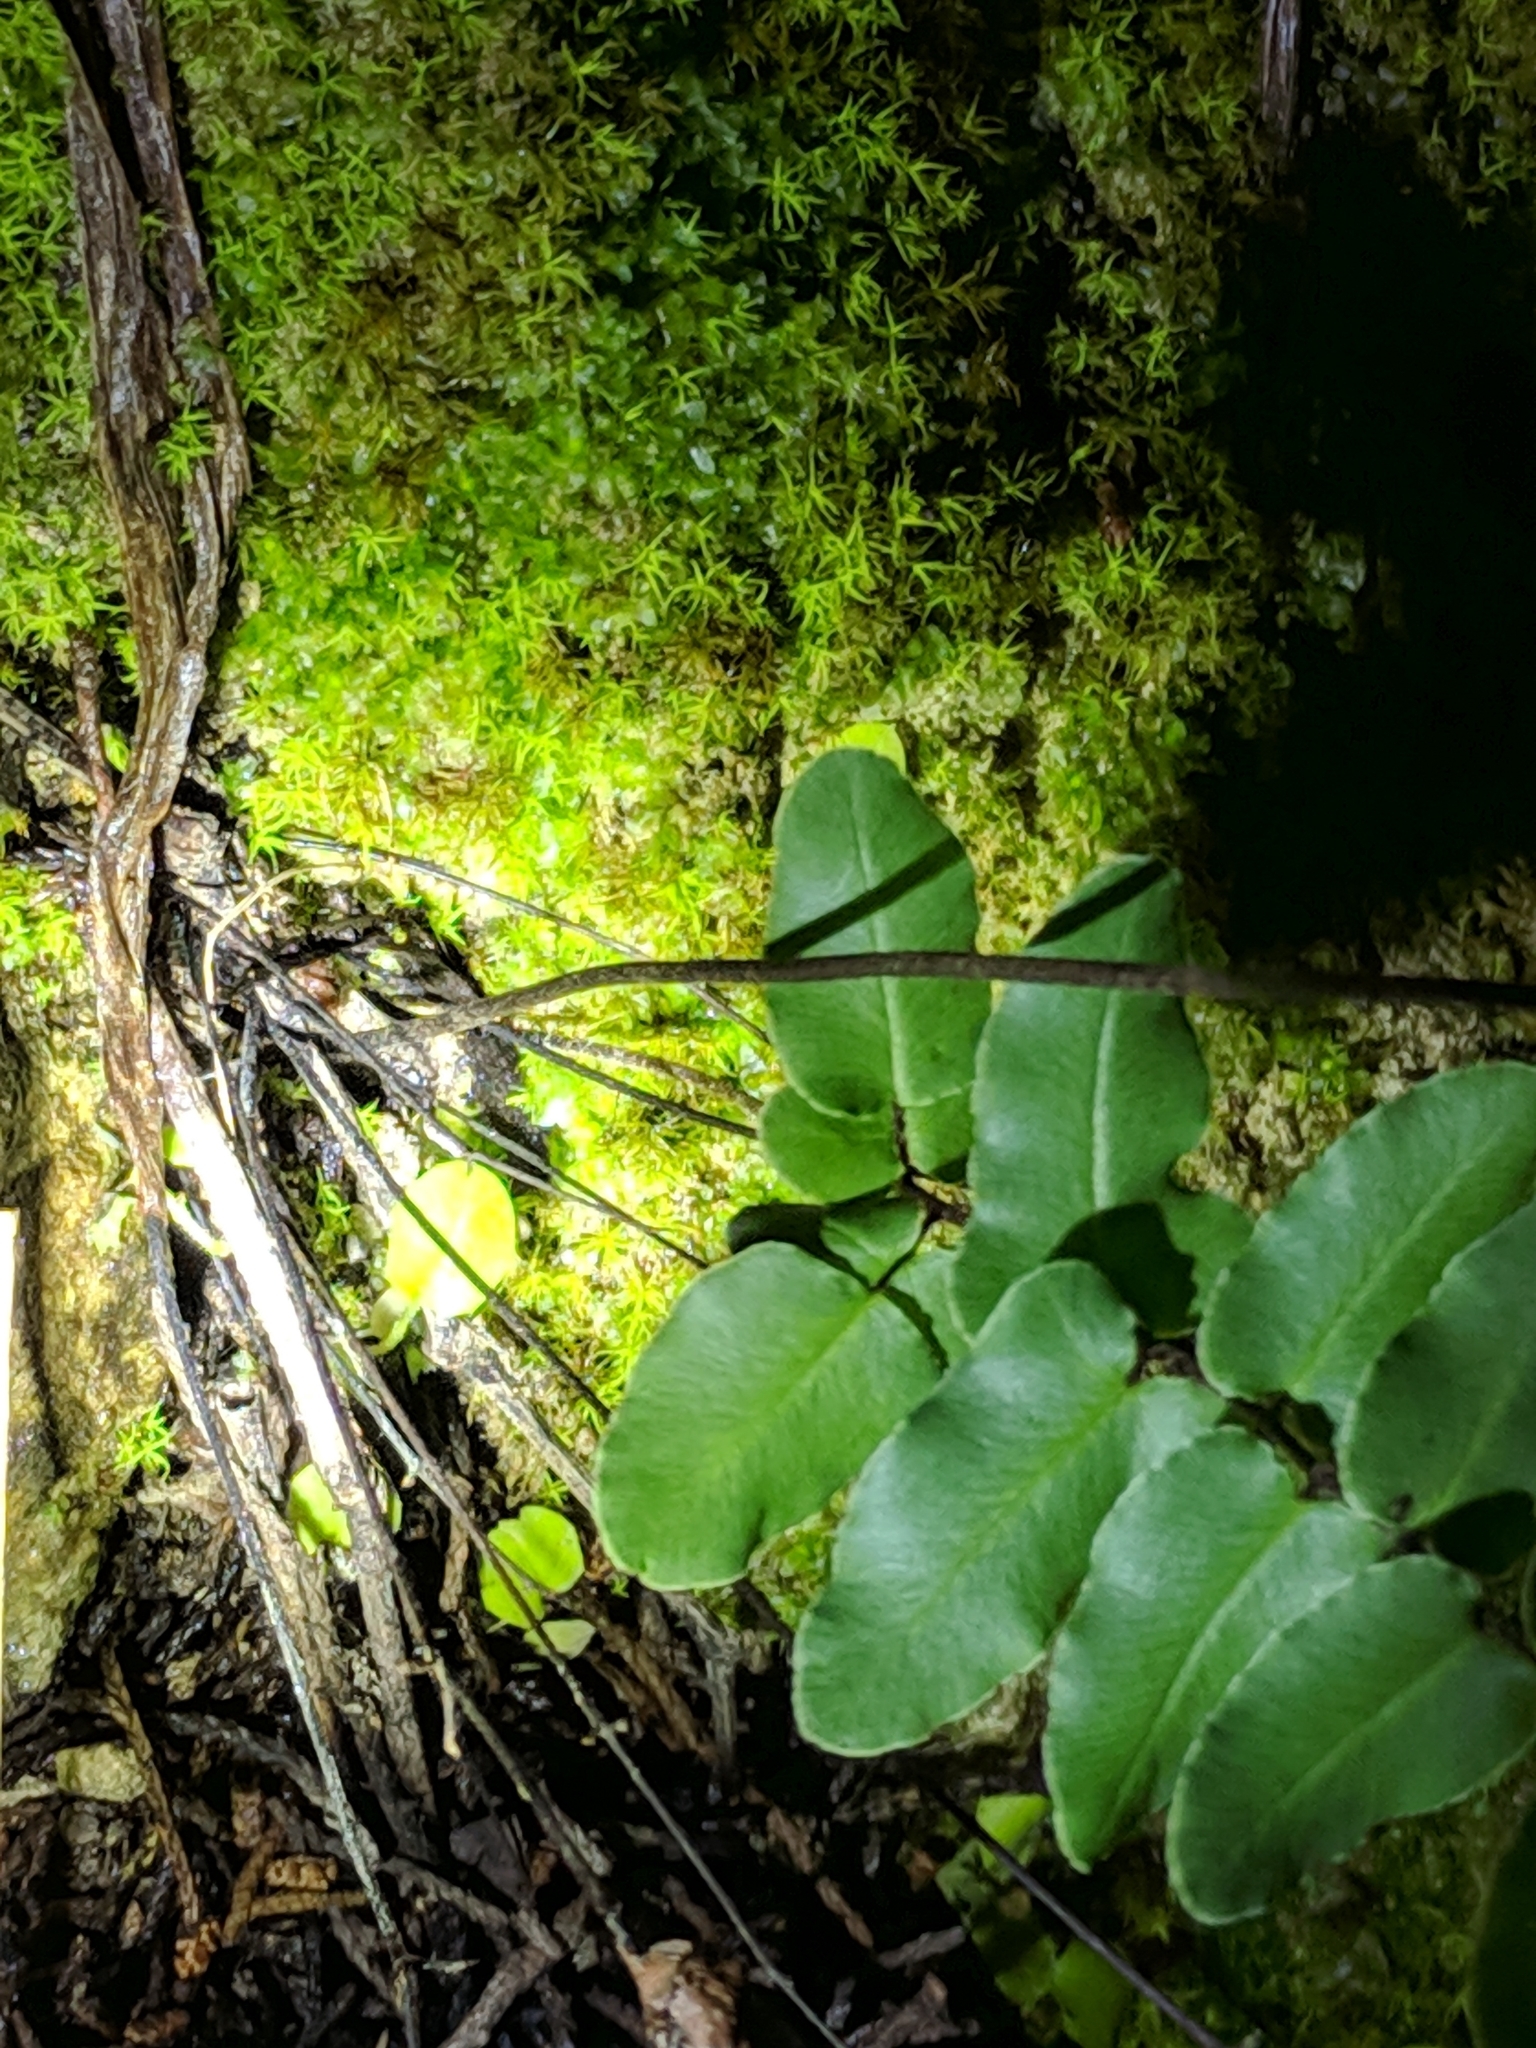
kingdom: Plantae
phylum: Tracheophyta
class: Polypodiopsida
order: Polypodiales
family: Pteridaceae
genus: Pellaea
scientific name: Pellaea atropurpurea
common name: Hairy cliffbrake
